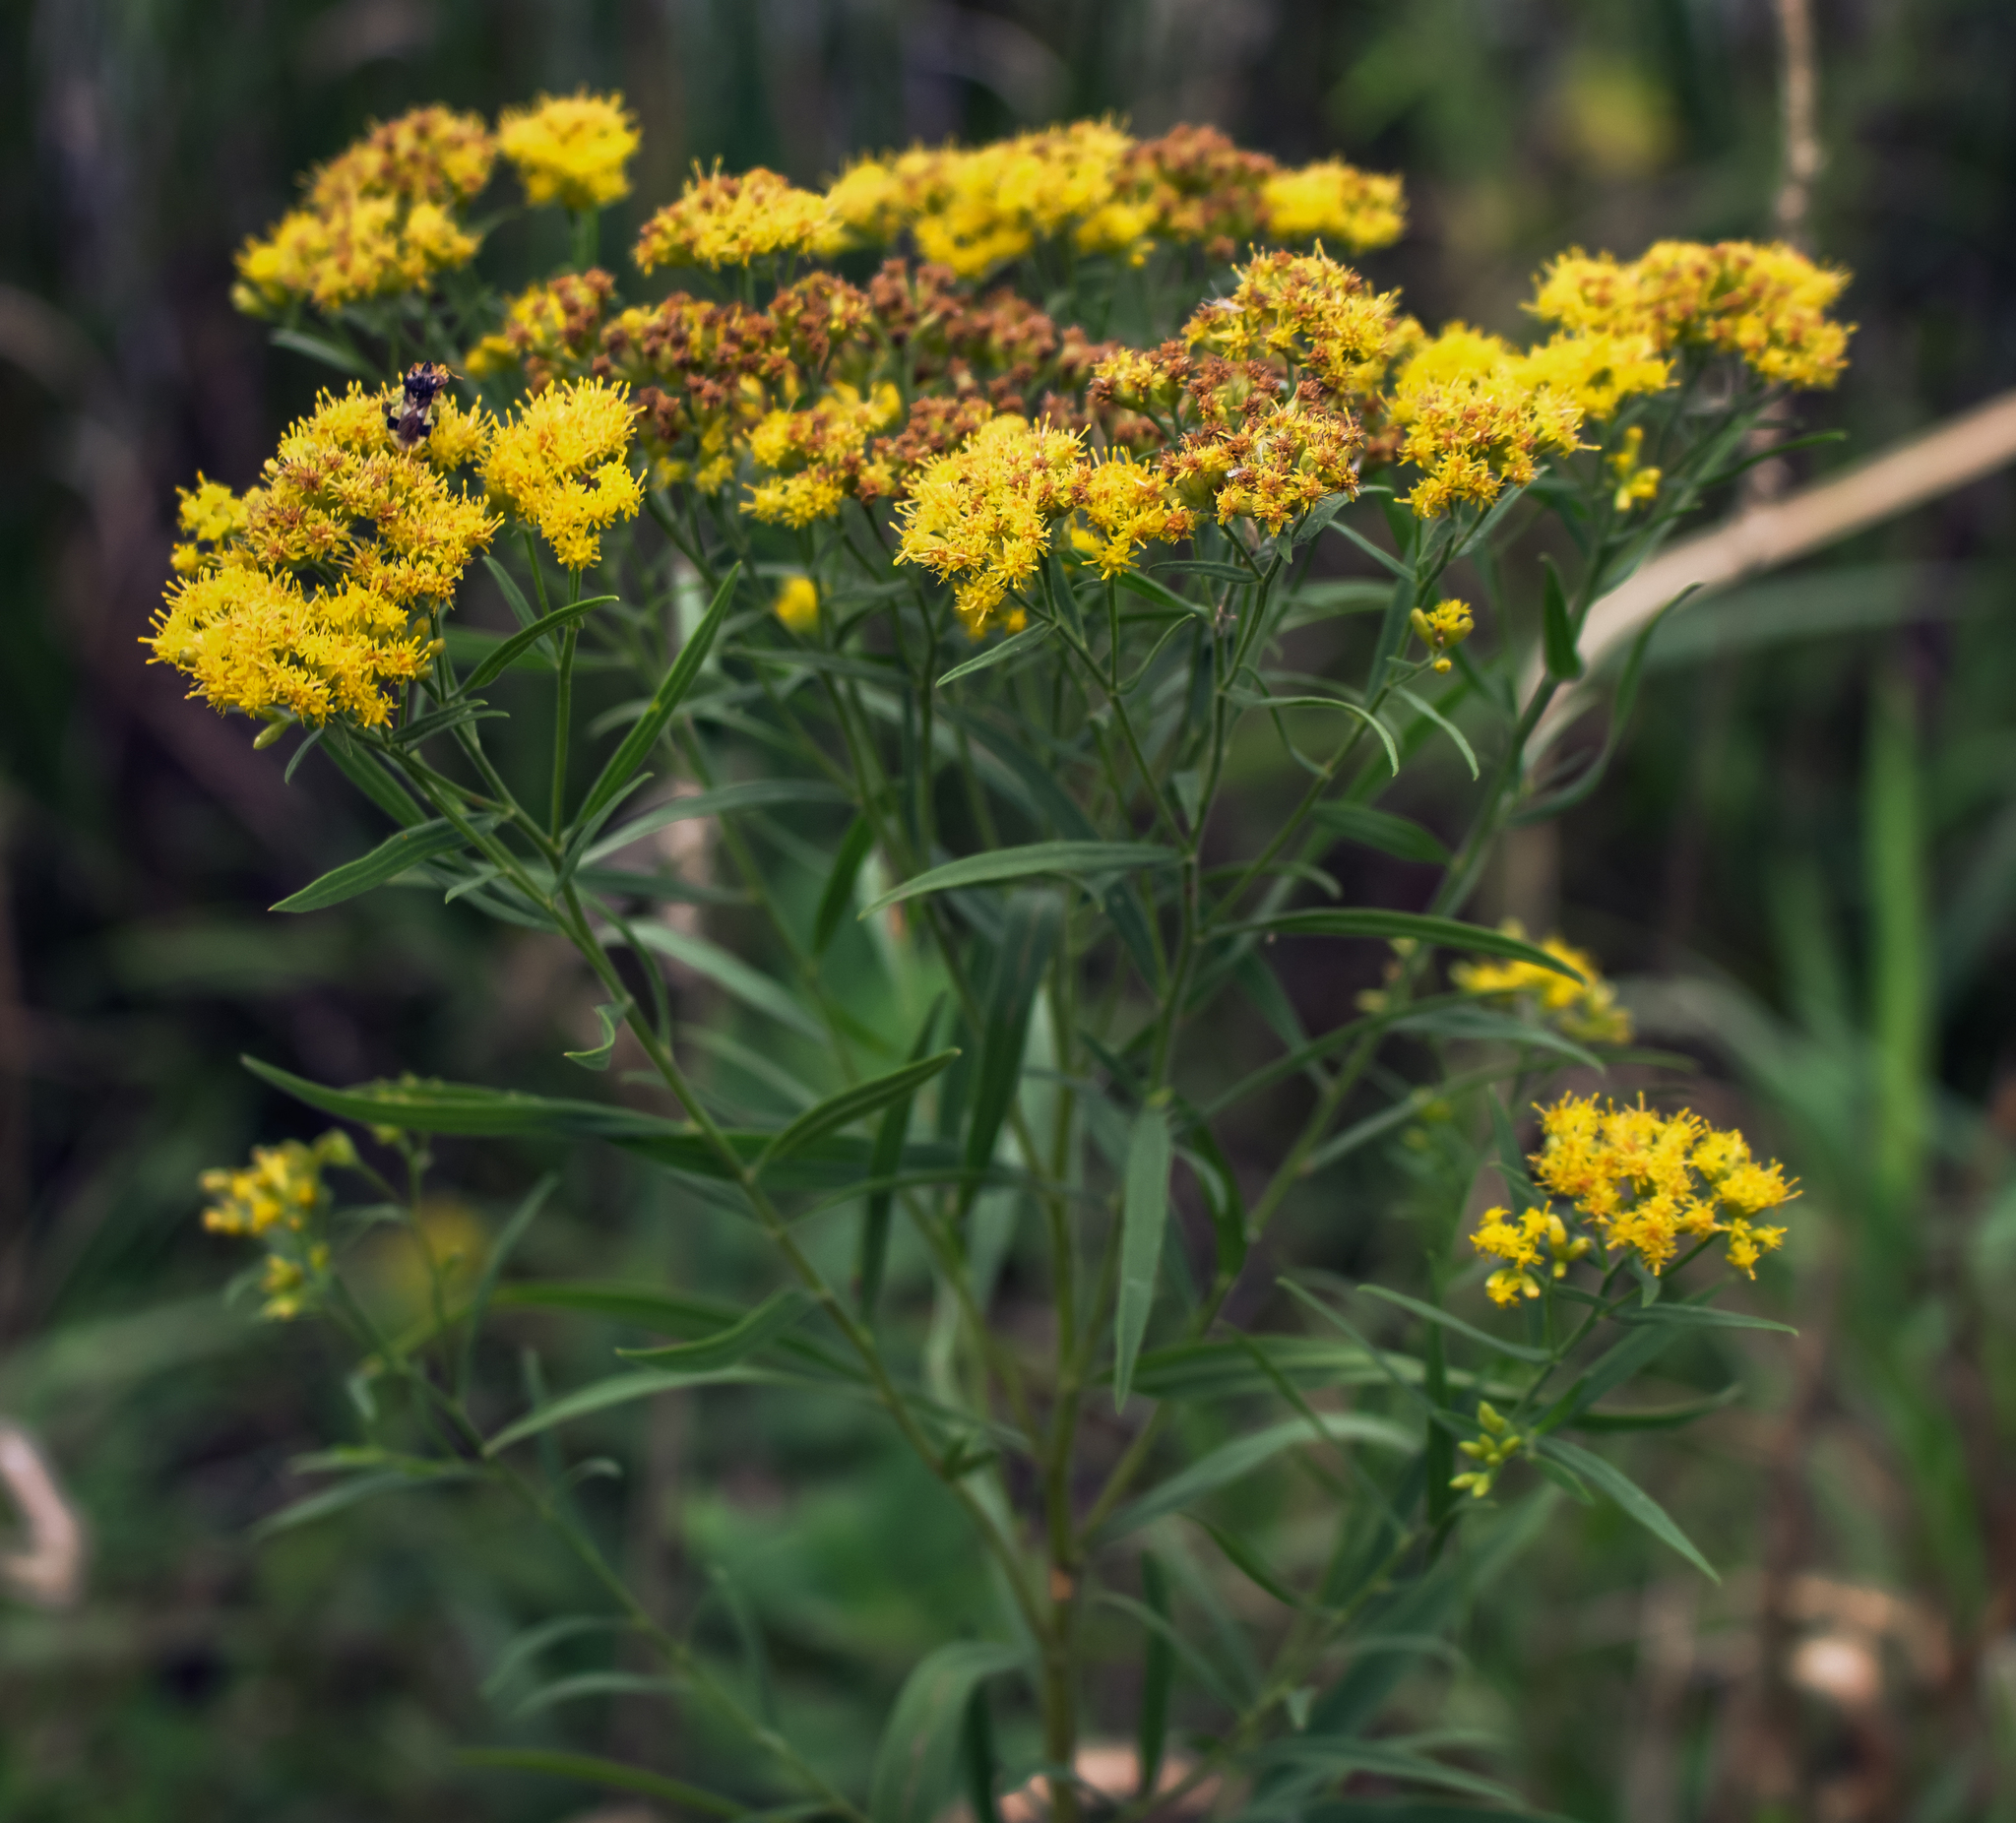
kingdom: Plantae
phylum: Tracheophyta
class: Magnoliopsida
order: Asterales
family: Asteraceae
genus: Euthamia
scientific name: Euthamia graminifolia
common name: Common goldentop
